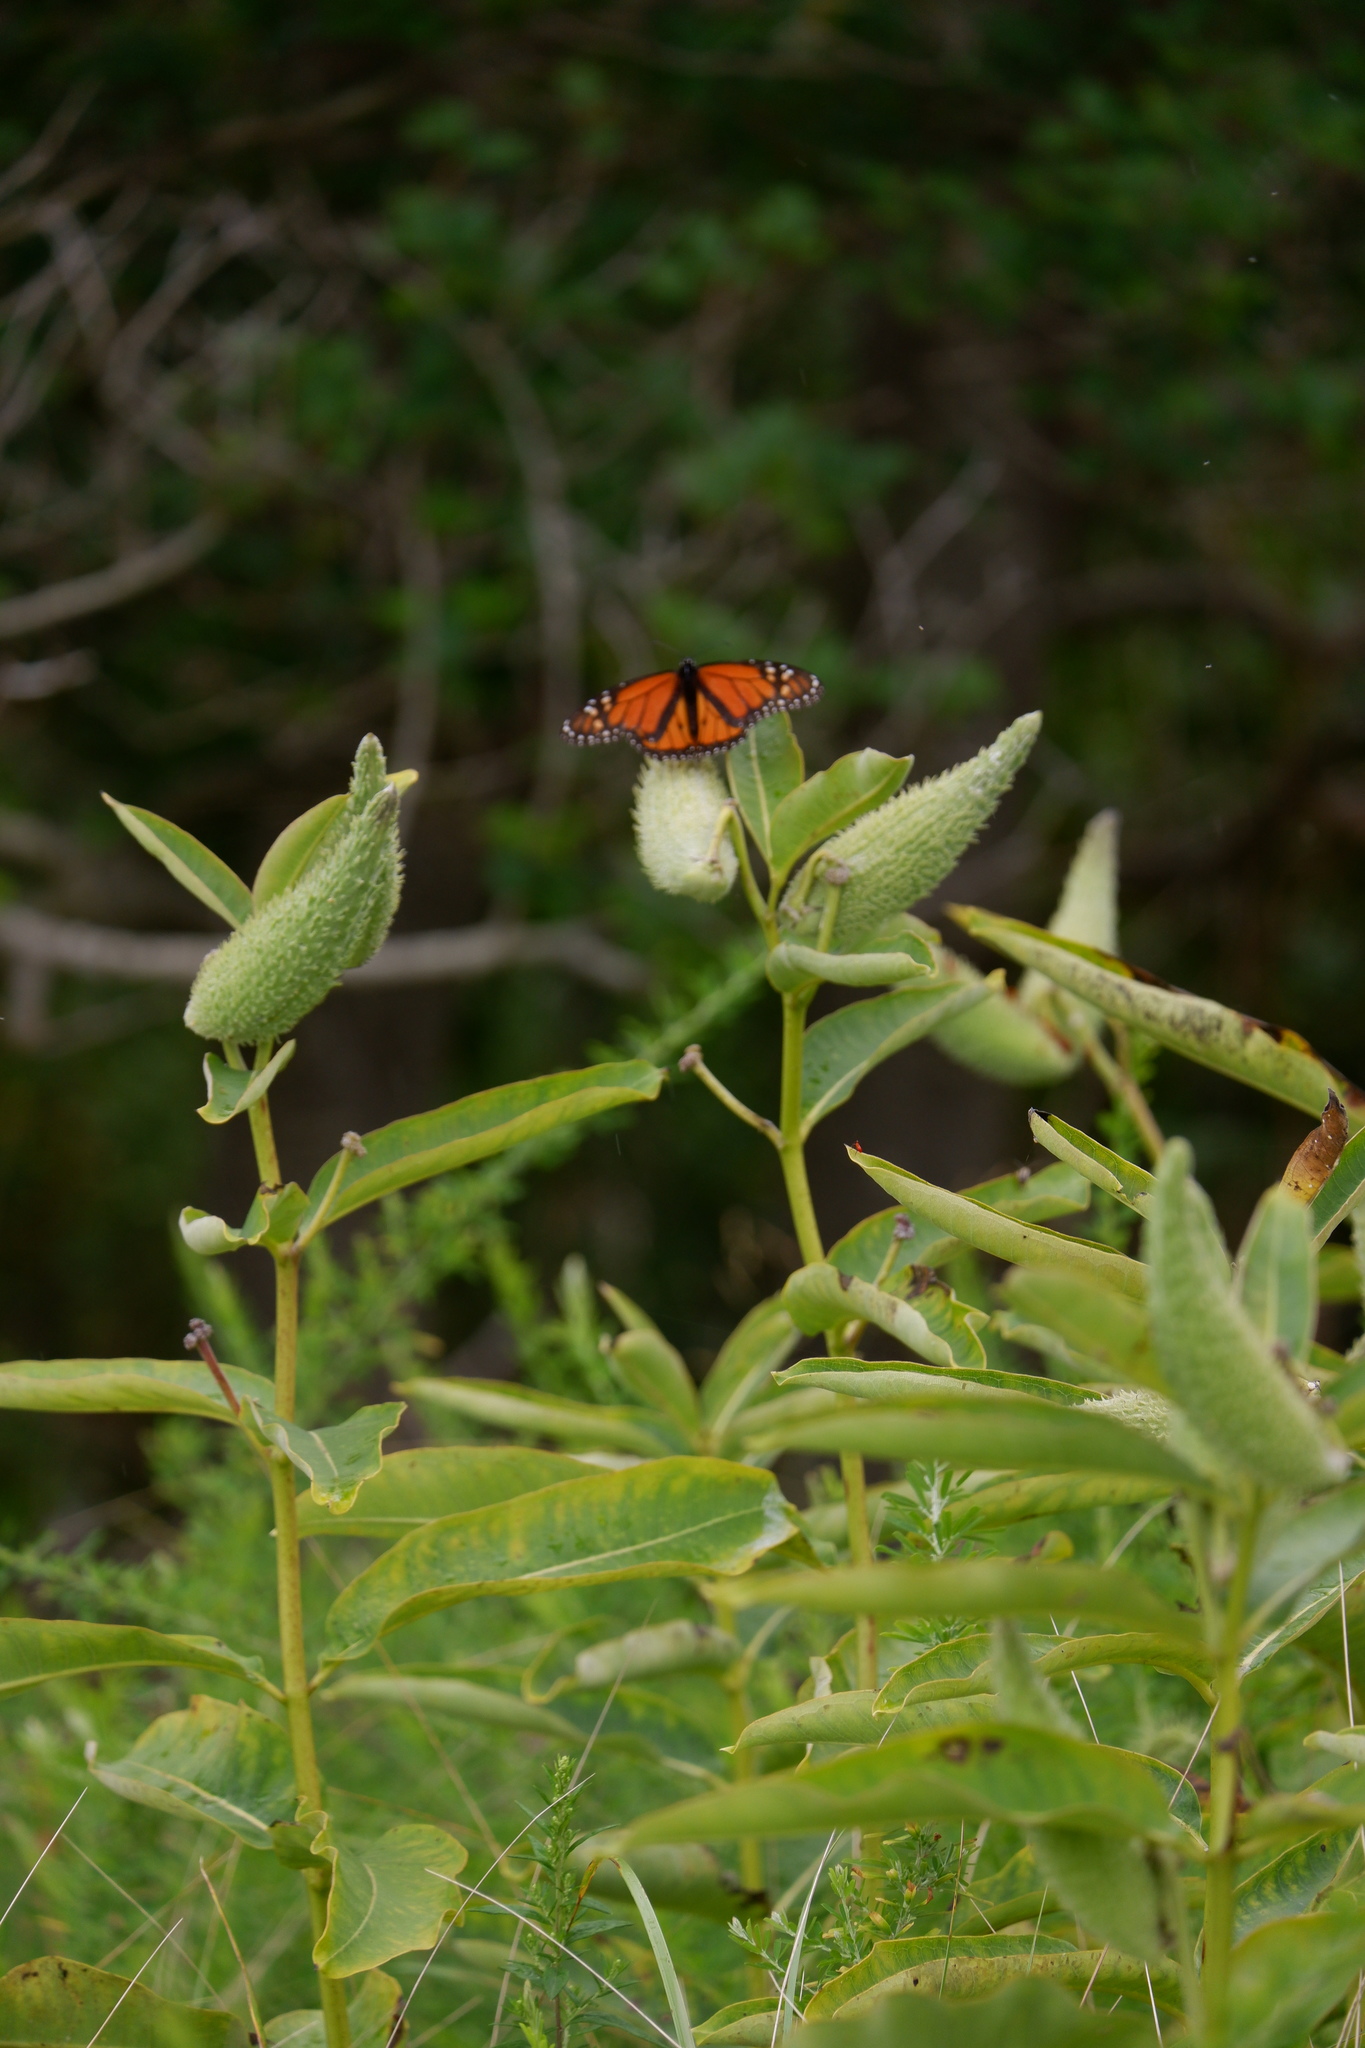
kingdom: Animalia
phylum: Arthropoda
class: Insecta
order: Lepidoptera
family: Nymphalidae
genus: Danaus
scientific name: Danaus plexippus
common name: Monarch
